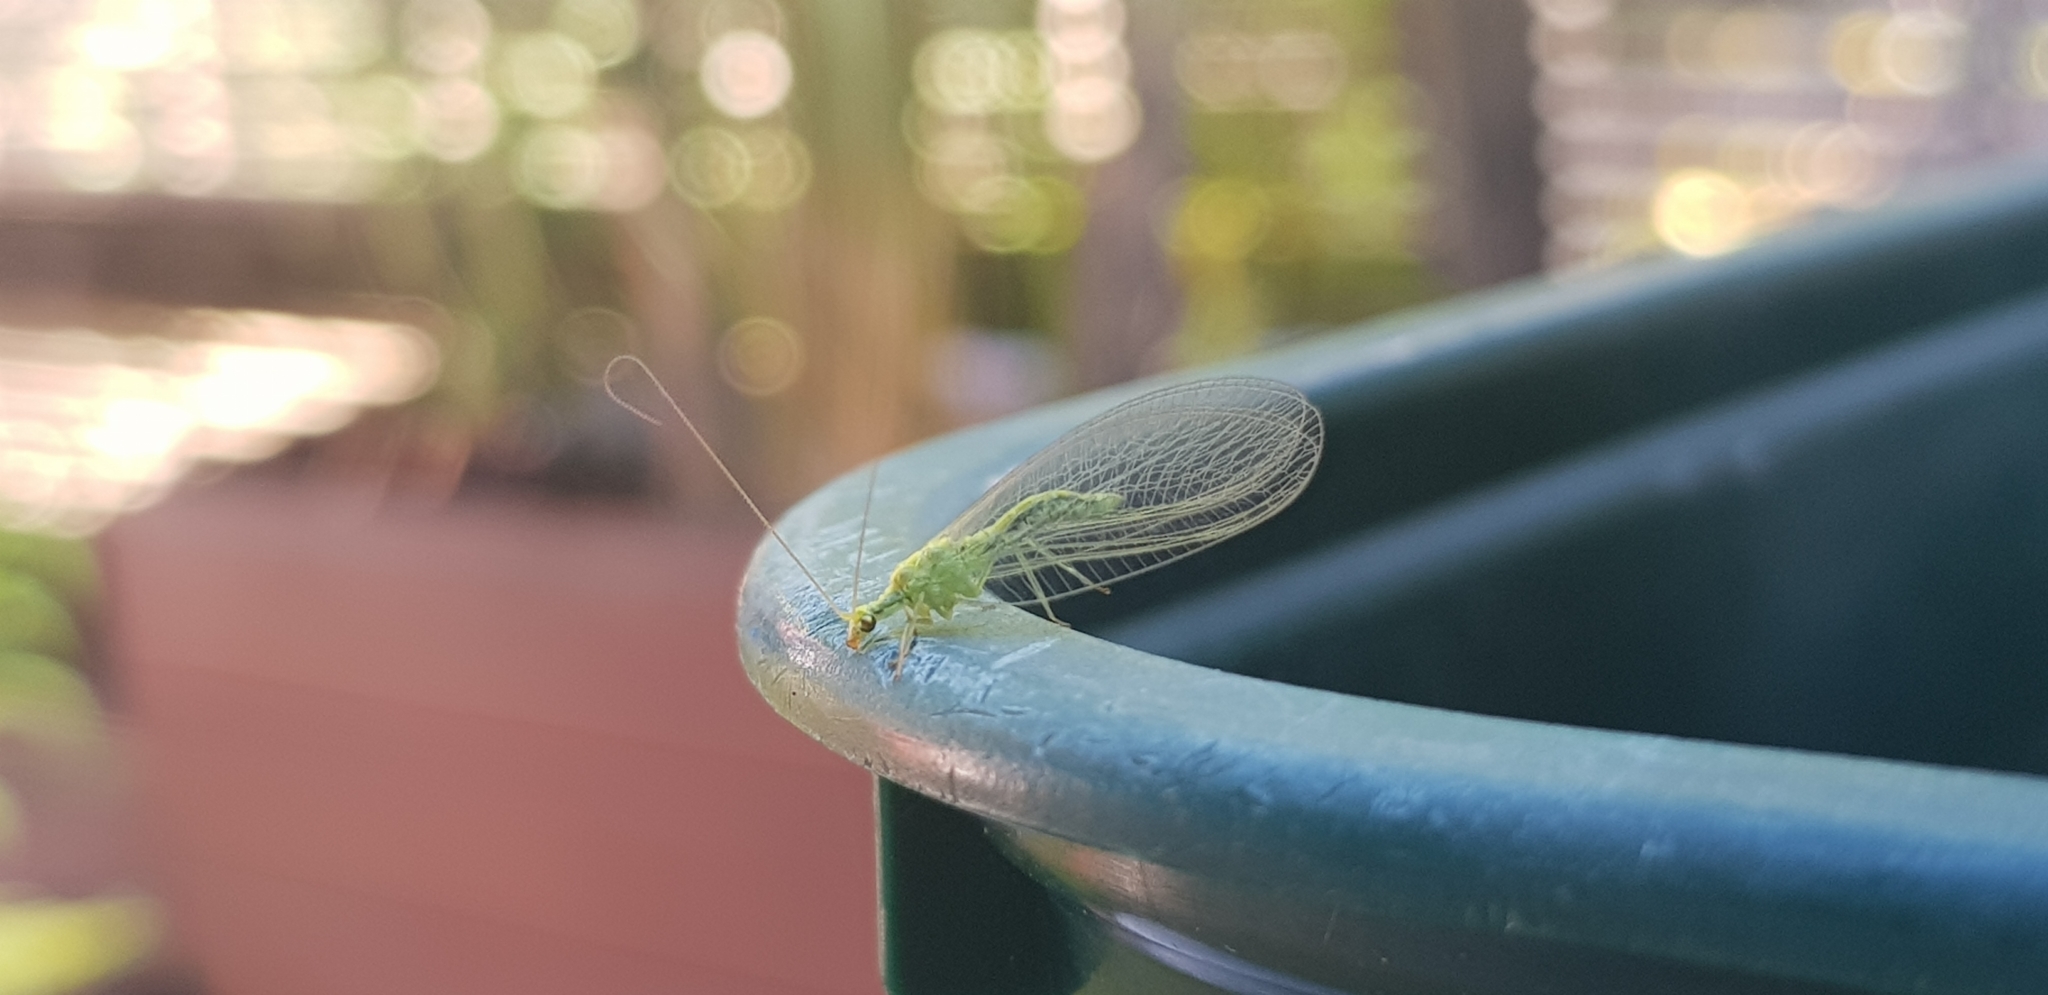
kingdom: Animalia
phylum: Arthropoda
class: Insecta
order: Neuroptera
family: Chrysopidae
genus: Mallada
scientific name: Mallada basalis
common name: Green lacewing
